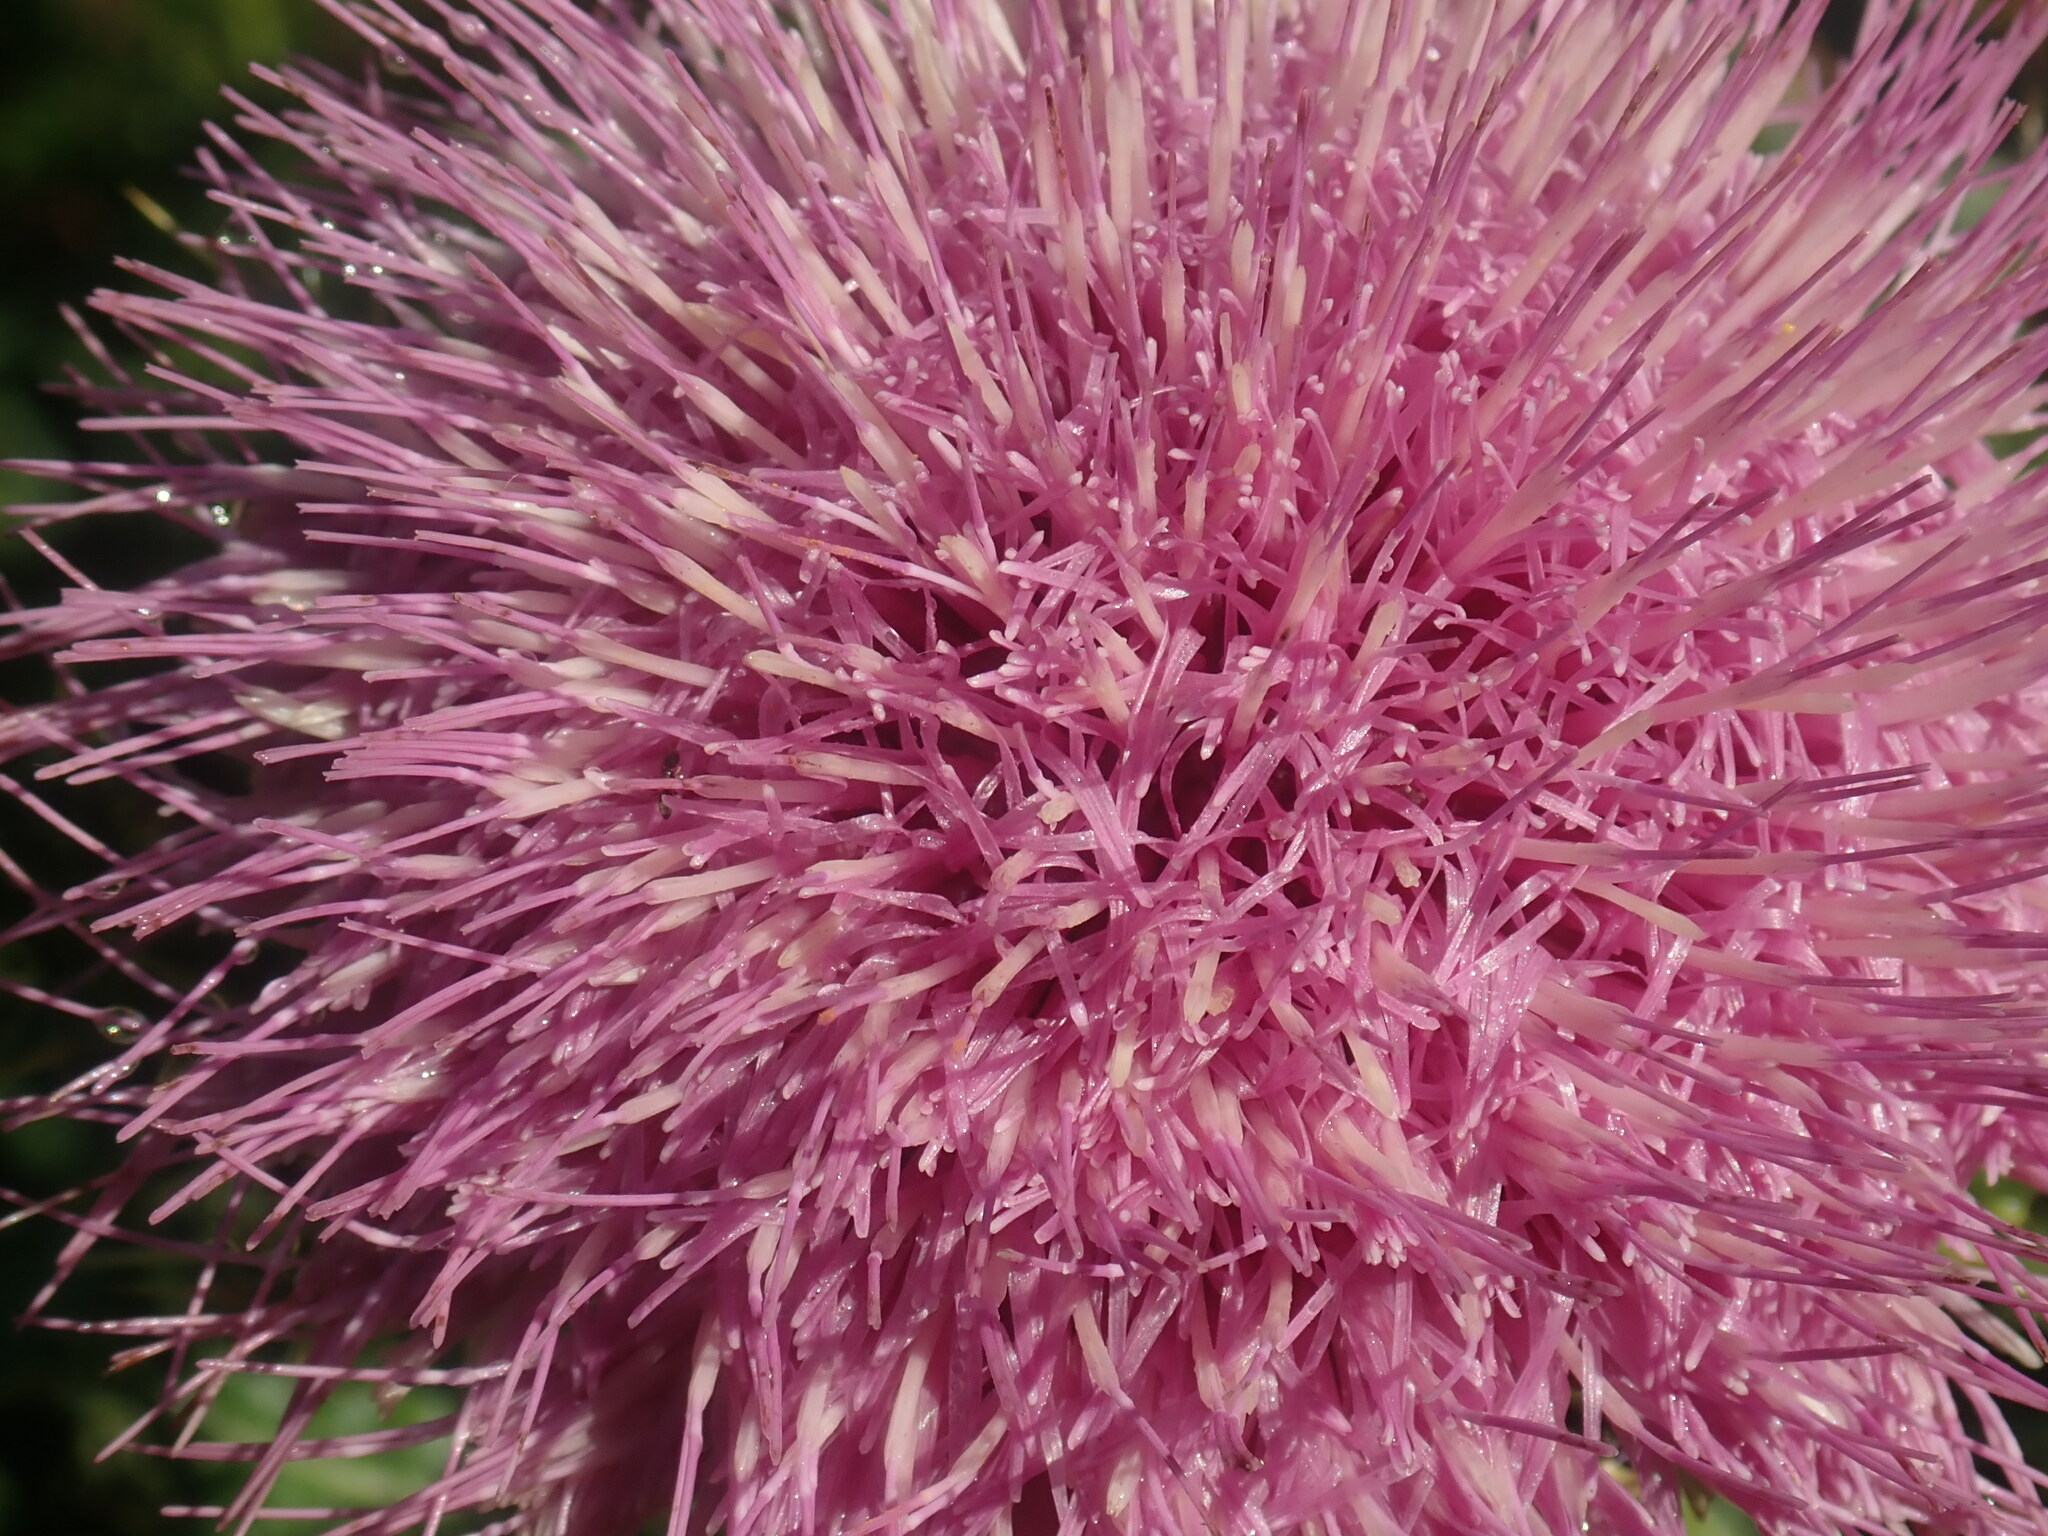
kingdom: Plantae
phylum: Tracheophyta
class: Magnoliopsida
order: Asterales
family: Asteraceae
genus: Cirsium
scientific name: Cirsium pumilum
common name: Pasture thistle
